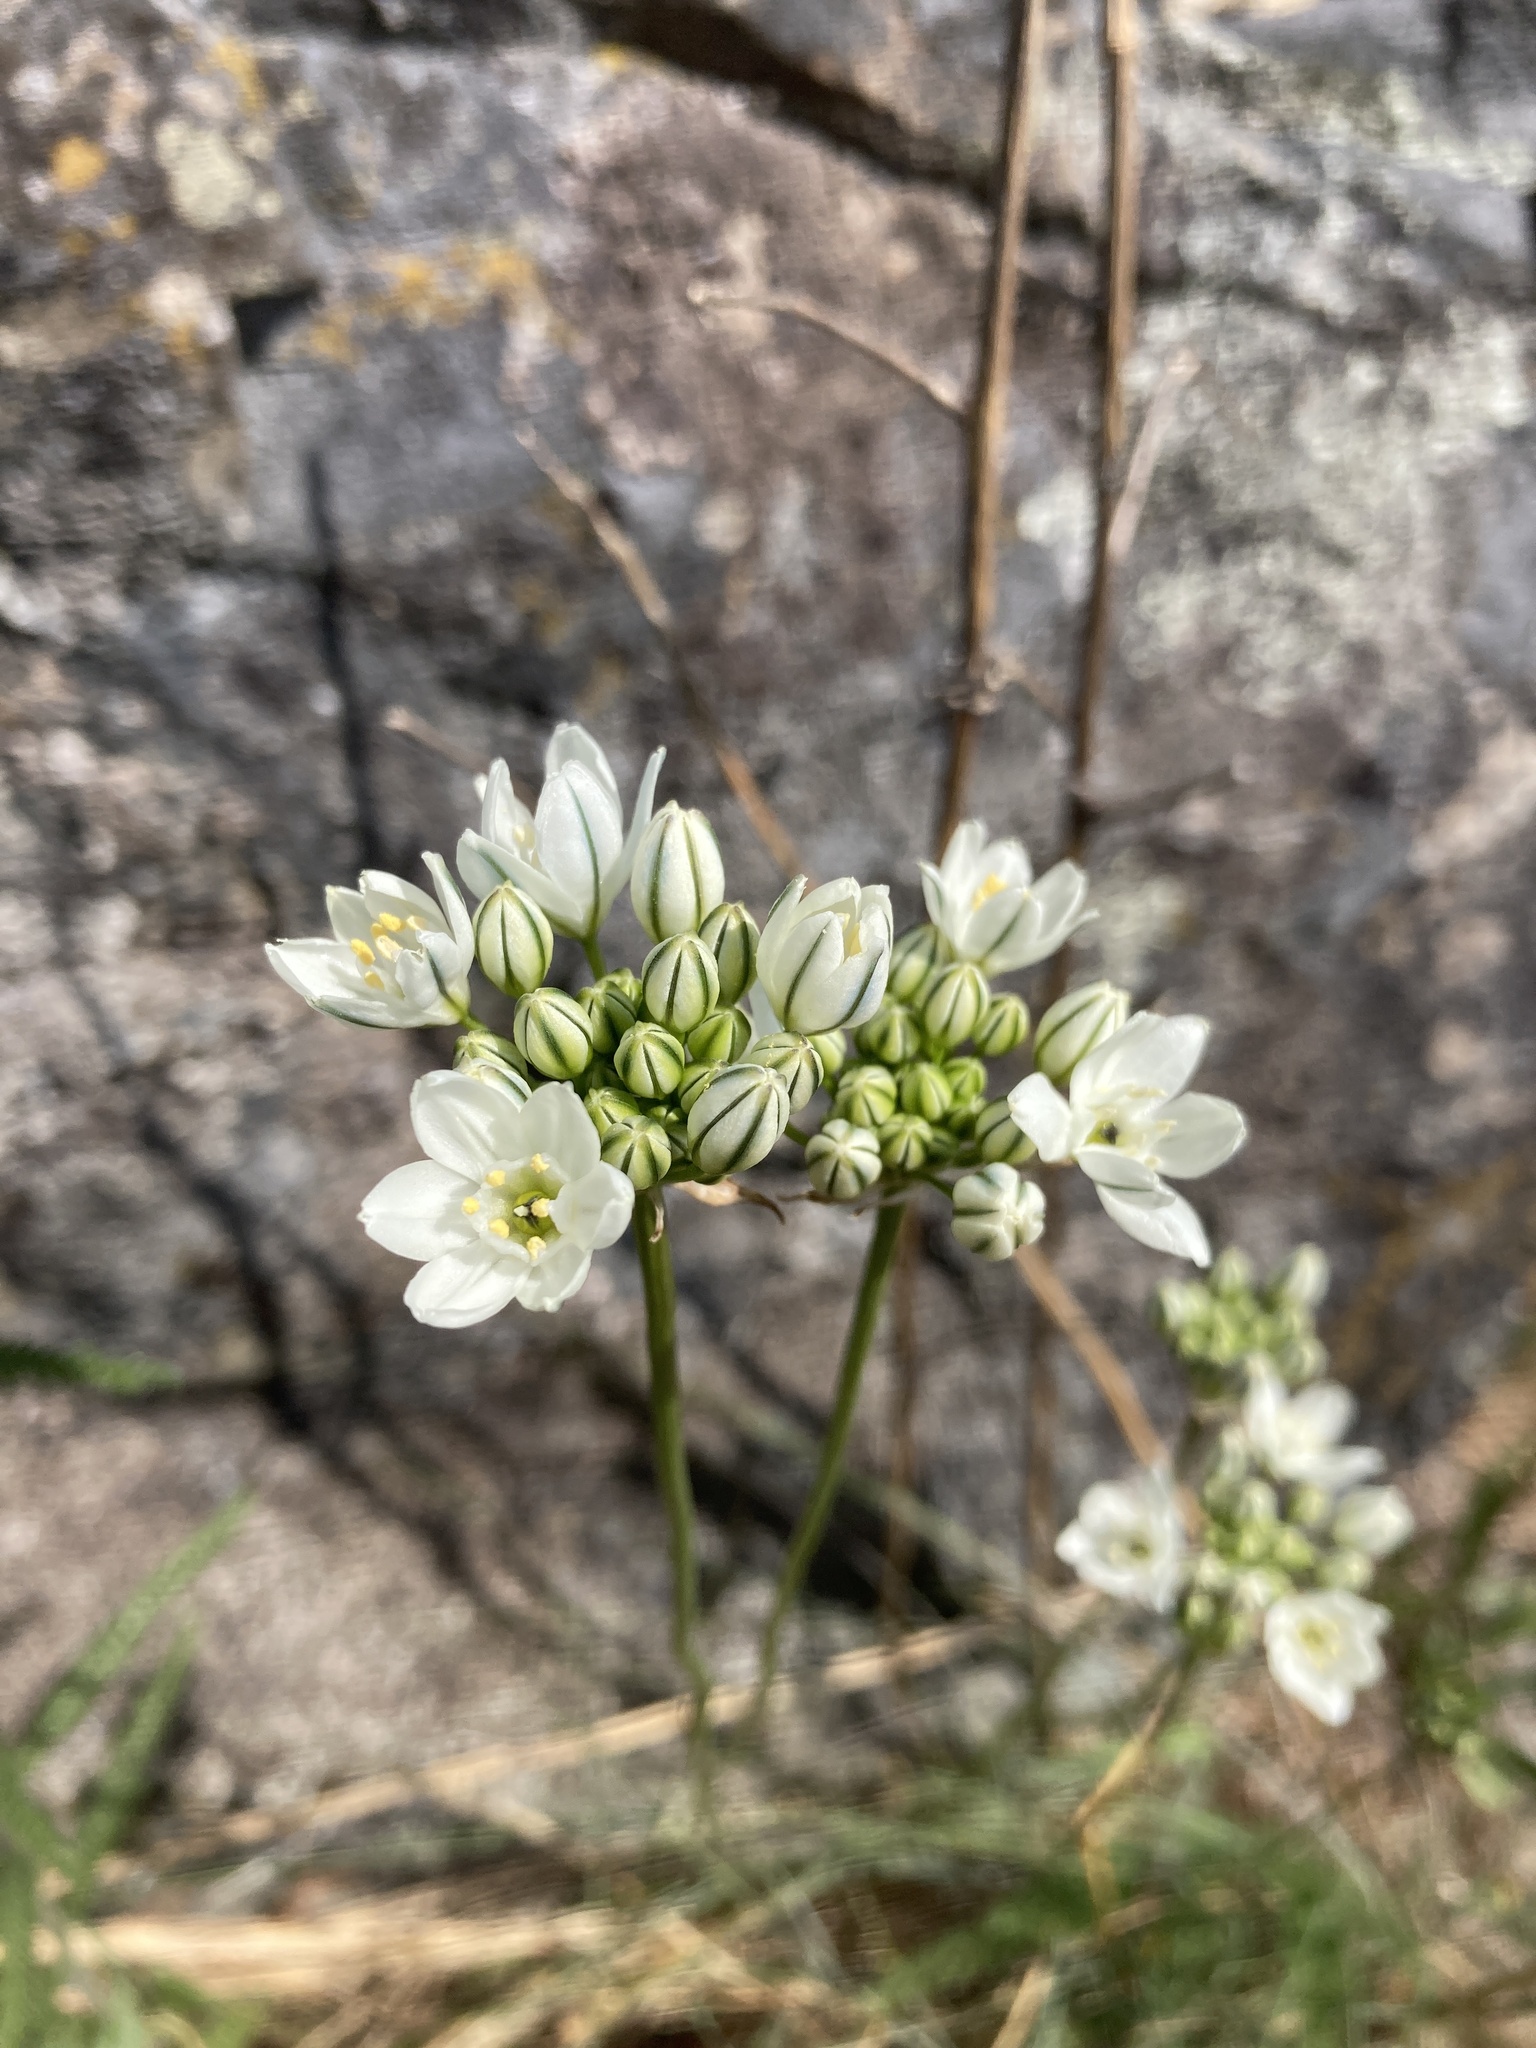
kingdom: Plantae
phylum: Tracheophyta
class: Liliopsida
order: Asparagales
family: Asparagaceae
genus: Triteleia
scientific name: Triteleia hyacinthina
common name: White brodiaea
